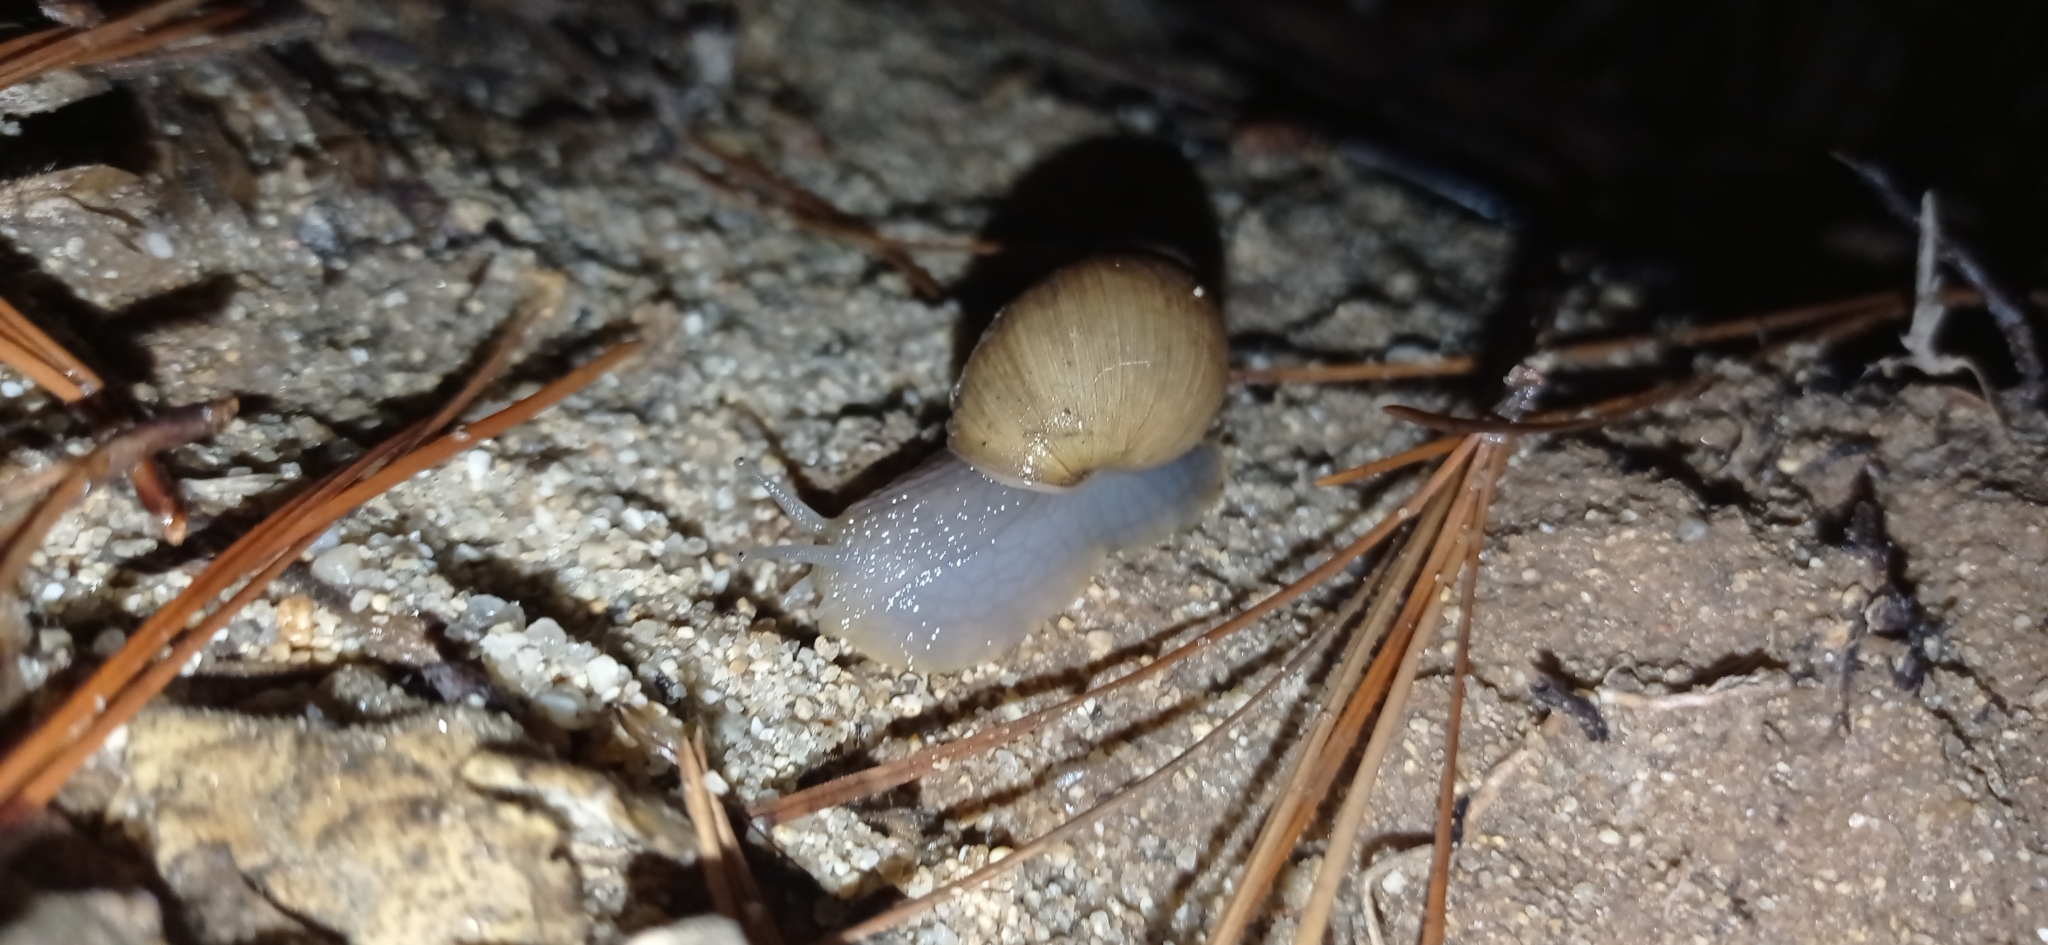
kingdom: Animalia
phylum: Mollusca
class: Gastropoda
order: Stylommatophora
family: Bothriembryontidae
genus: Plectostylus
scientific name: Plectostylus chilensis
